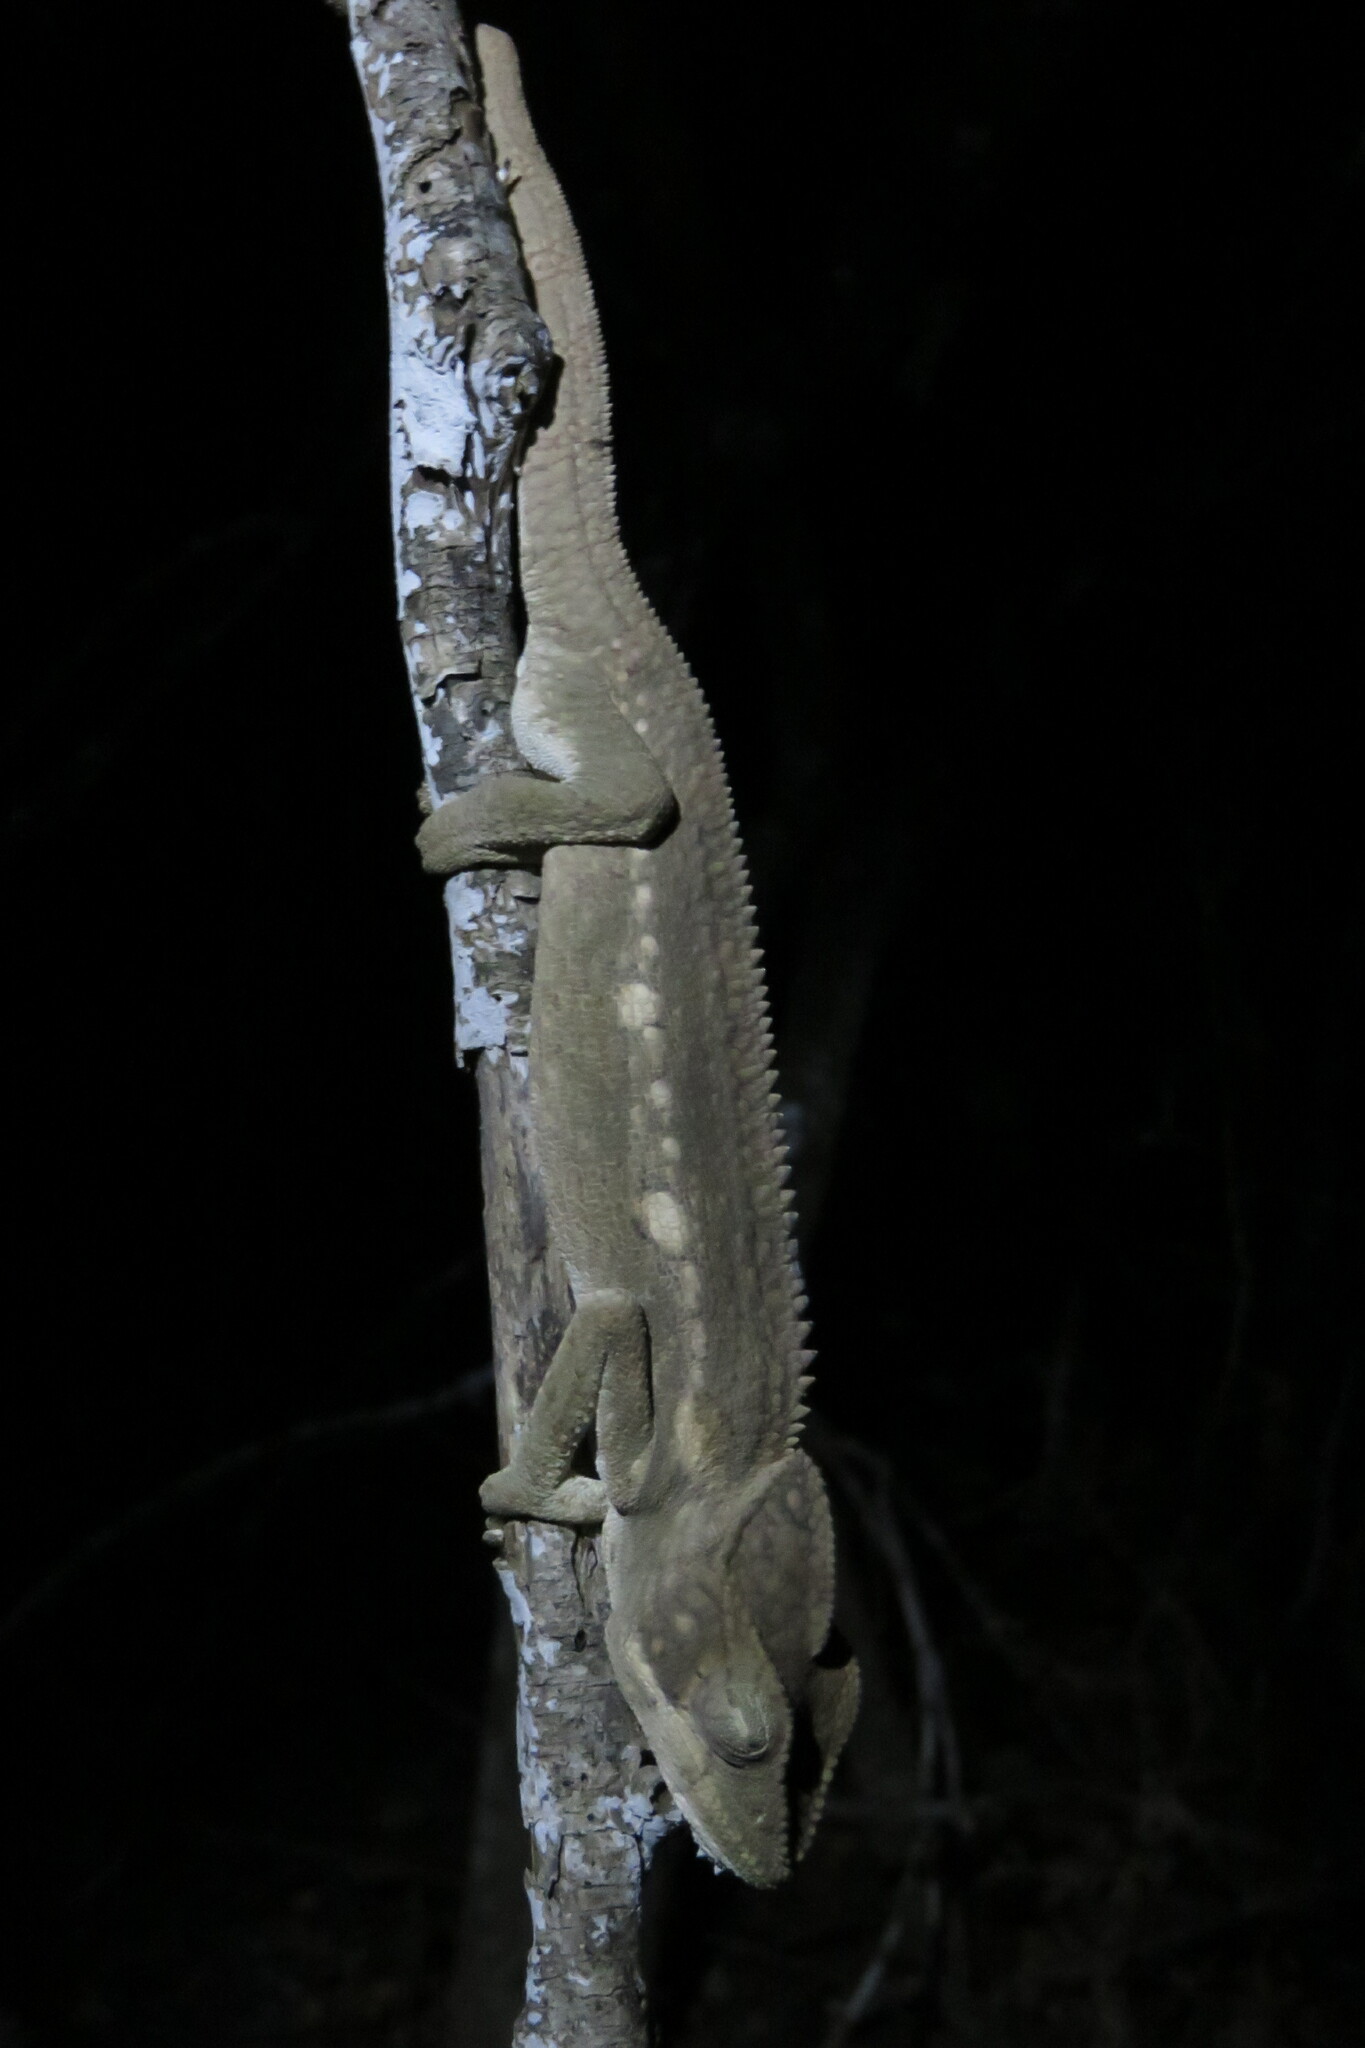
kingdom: Animalia
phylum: Chordata
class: Squamata
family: Chamaeleonidae
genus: Furcifer
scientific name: Furcifer oustaleti
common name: Oustalet's chameleon
